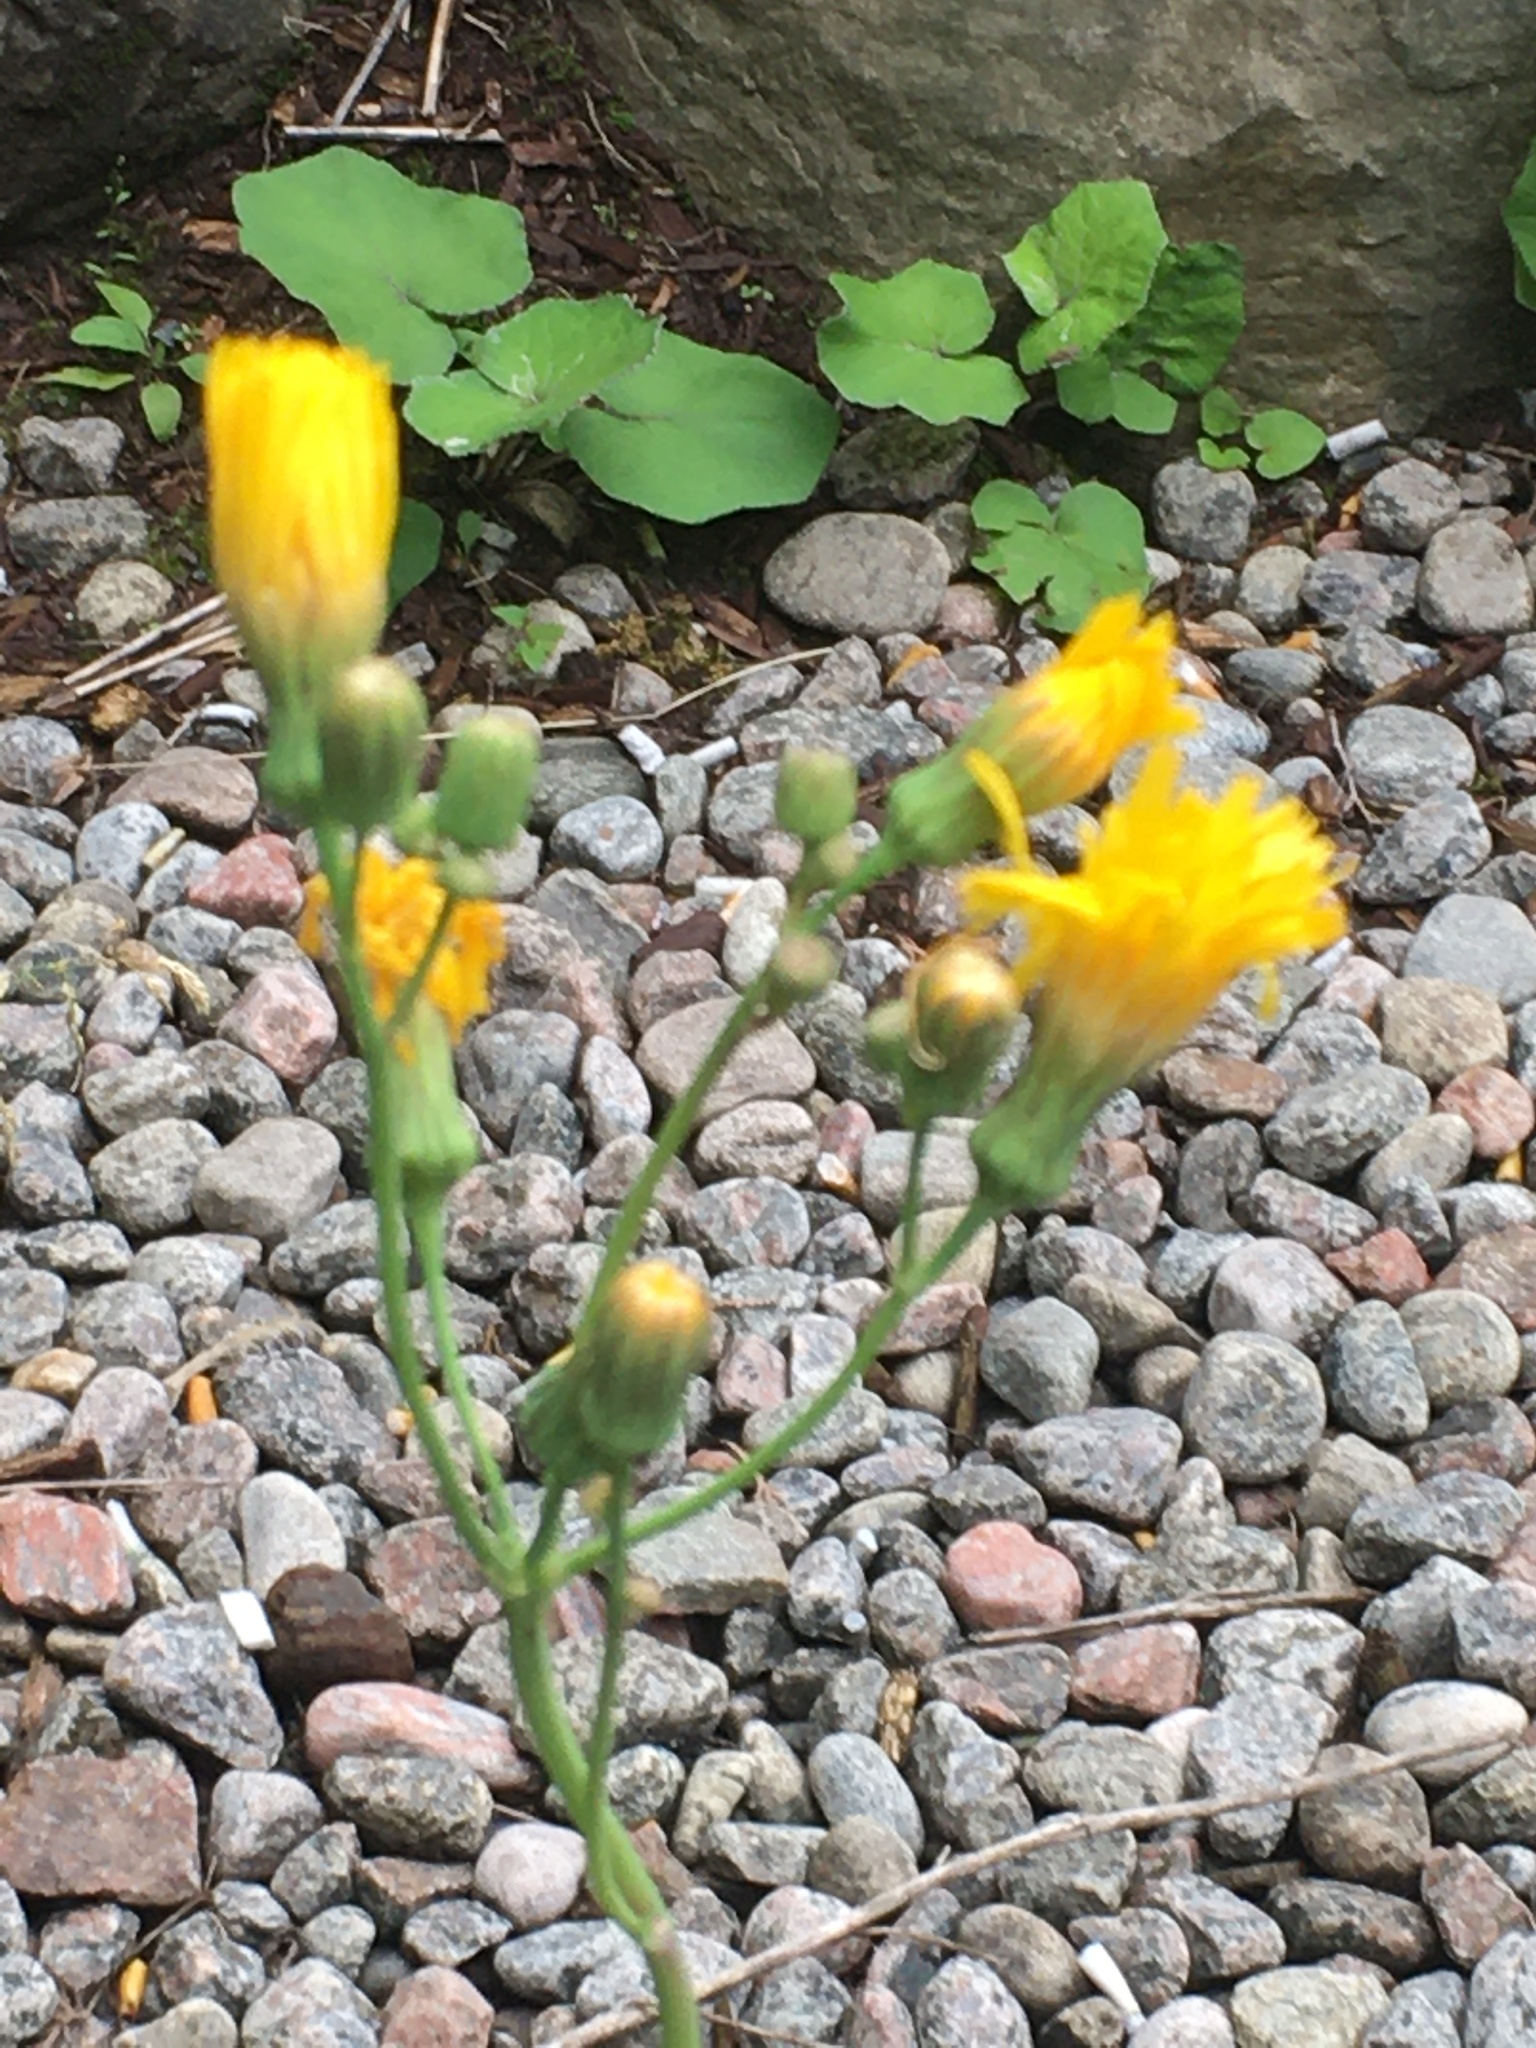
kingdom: Plantae
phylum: Tracheophyta
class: Magnoliopsida
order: Asterales
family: Asteraceae
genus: Sonchus
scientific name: Sonchus arvensis
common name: Perennial sow-thistle
